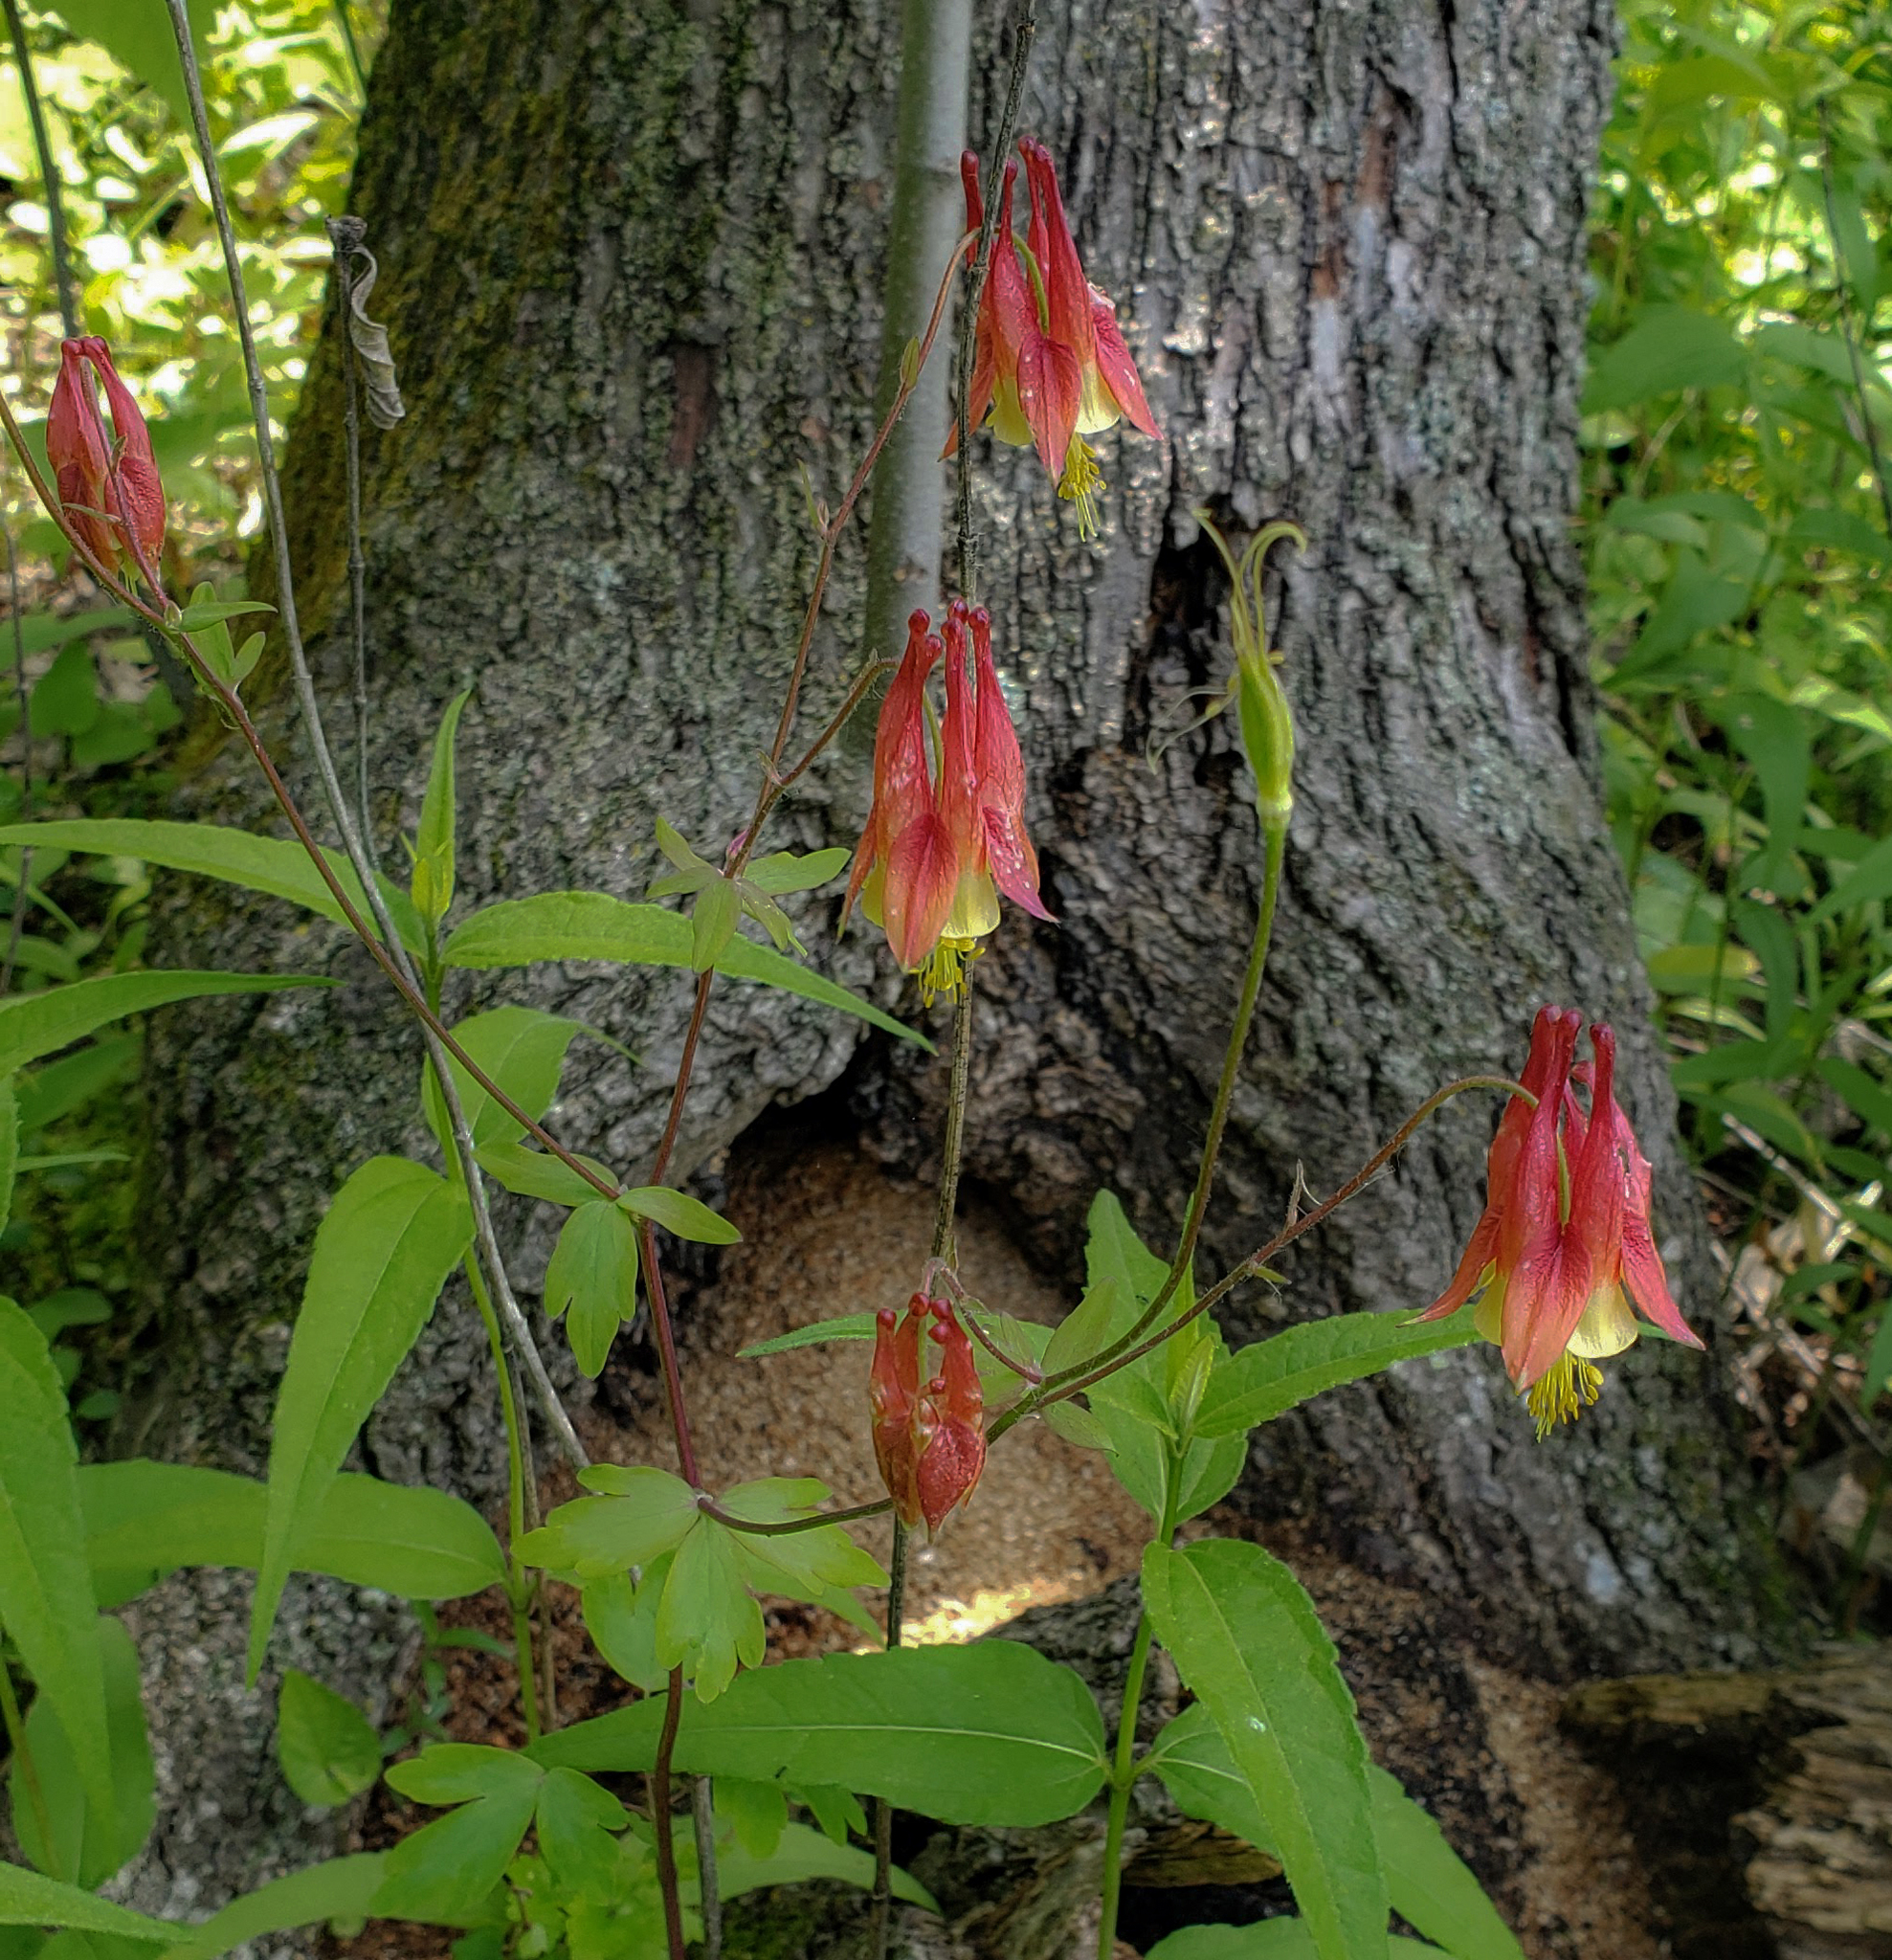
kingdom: Plantae
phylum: Tracheophyta
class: Magnoliopsida
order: Ranunculales
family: Ranunculaceae
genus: Aquilegia
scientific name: Aquilegia canadensis
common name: American columbine
